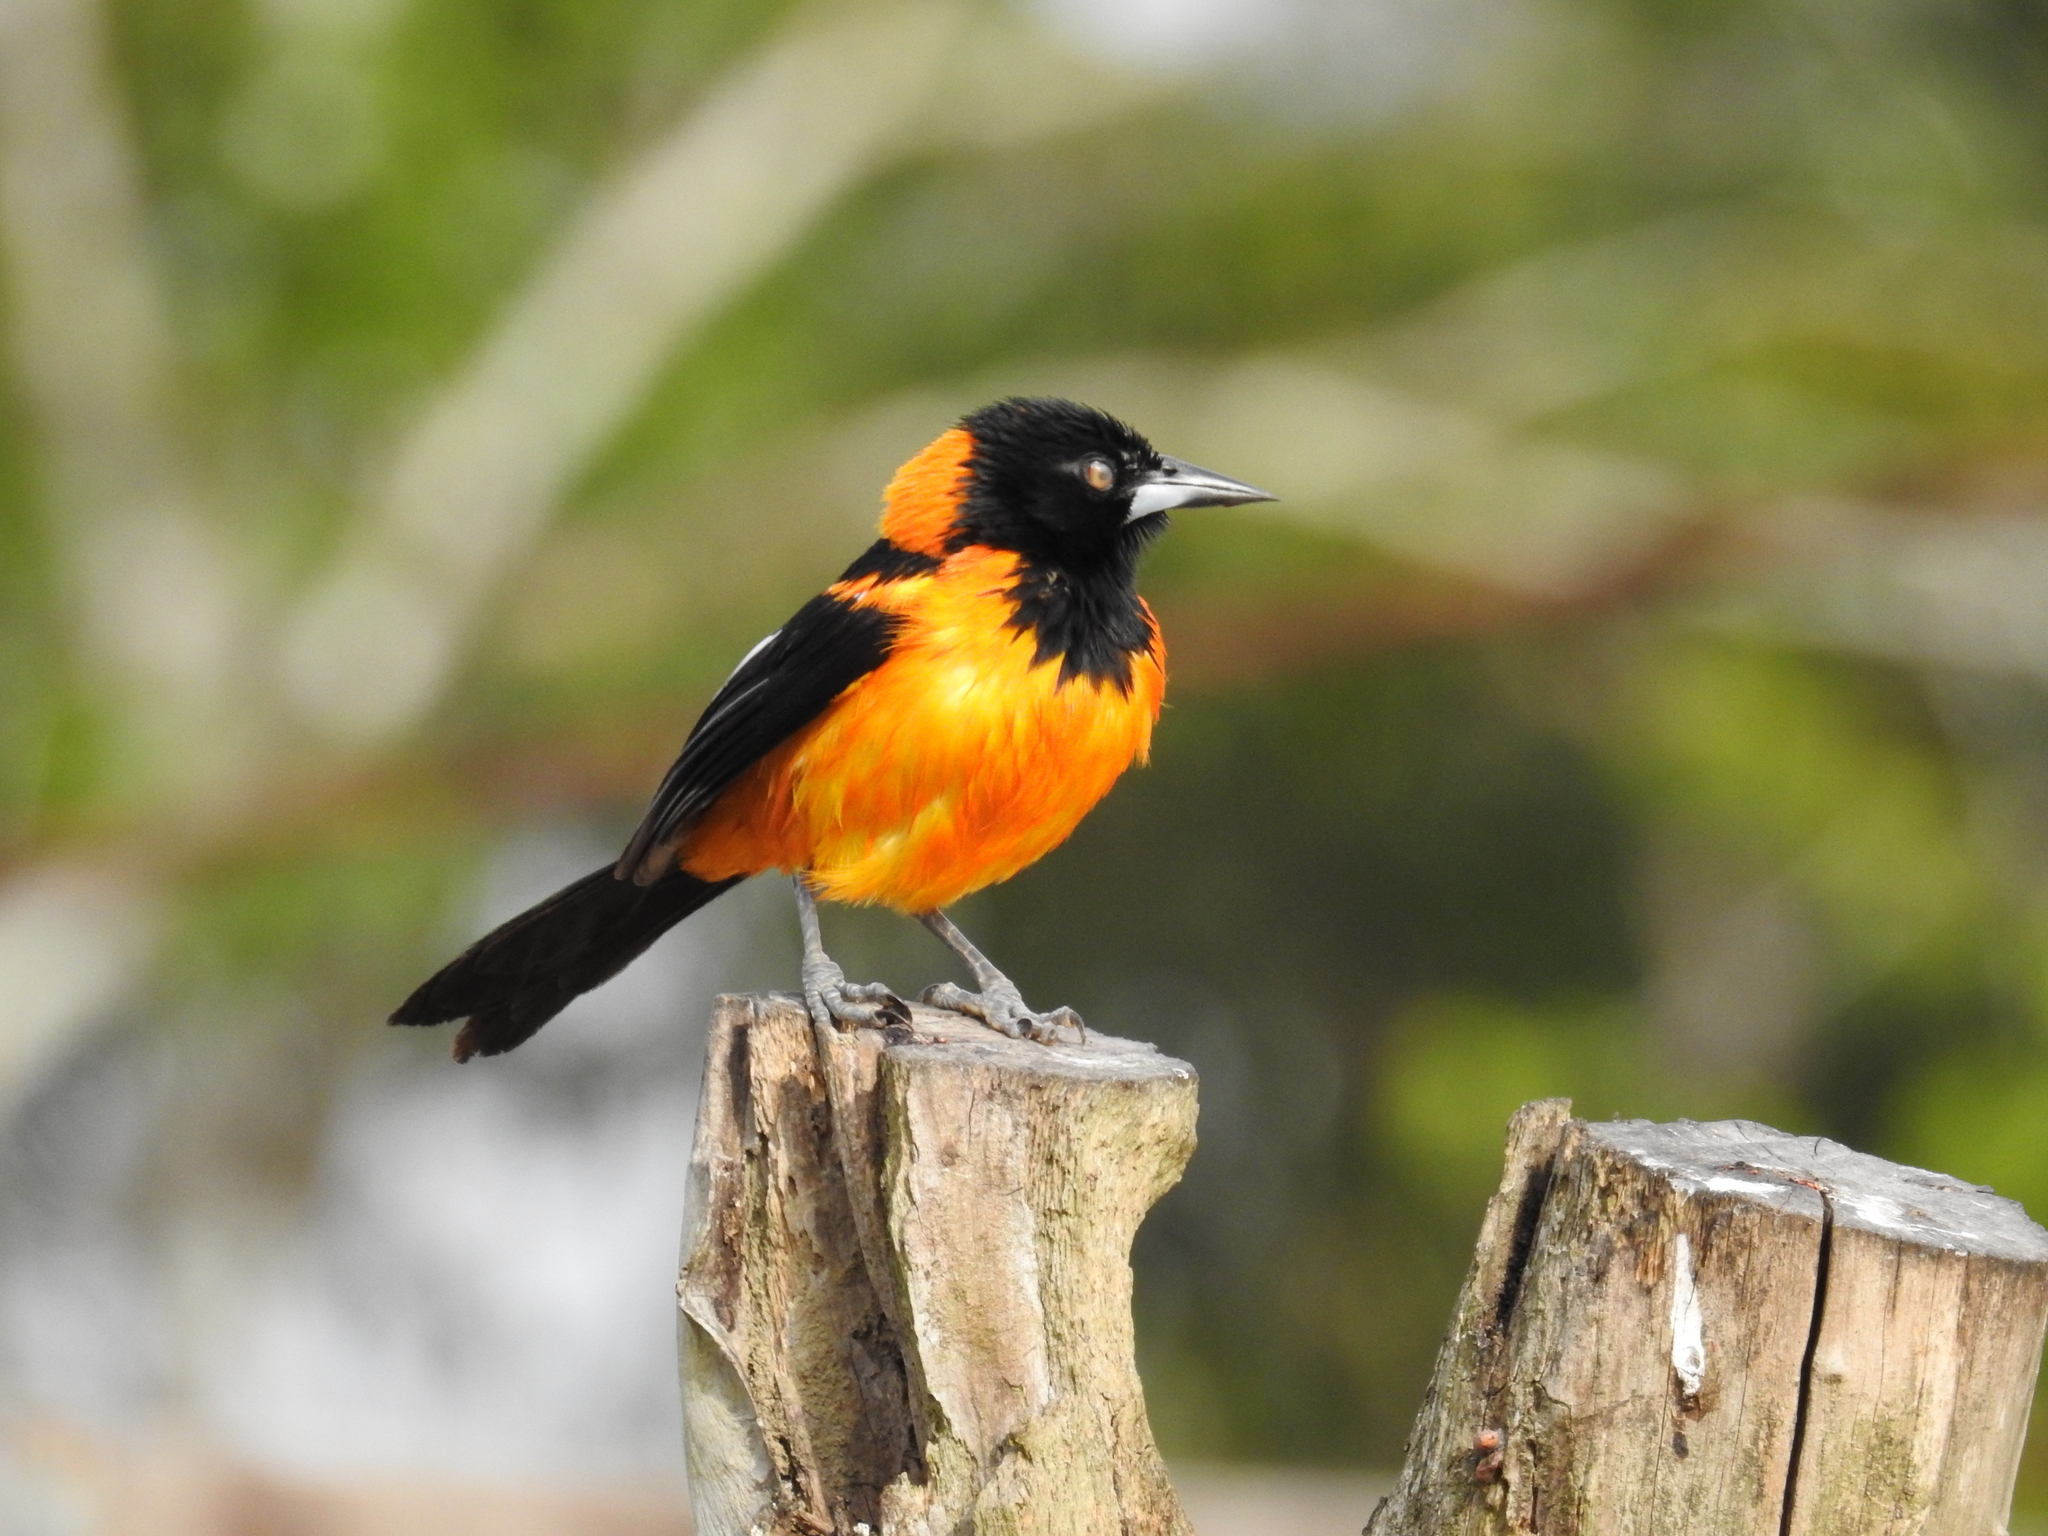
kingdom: Animalia
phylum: Chordata
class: Aves
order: Passeriformes
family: Icteridae
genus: Icterus
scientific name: Icterus icterus
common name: Venezuelan troupial
